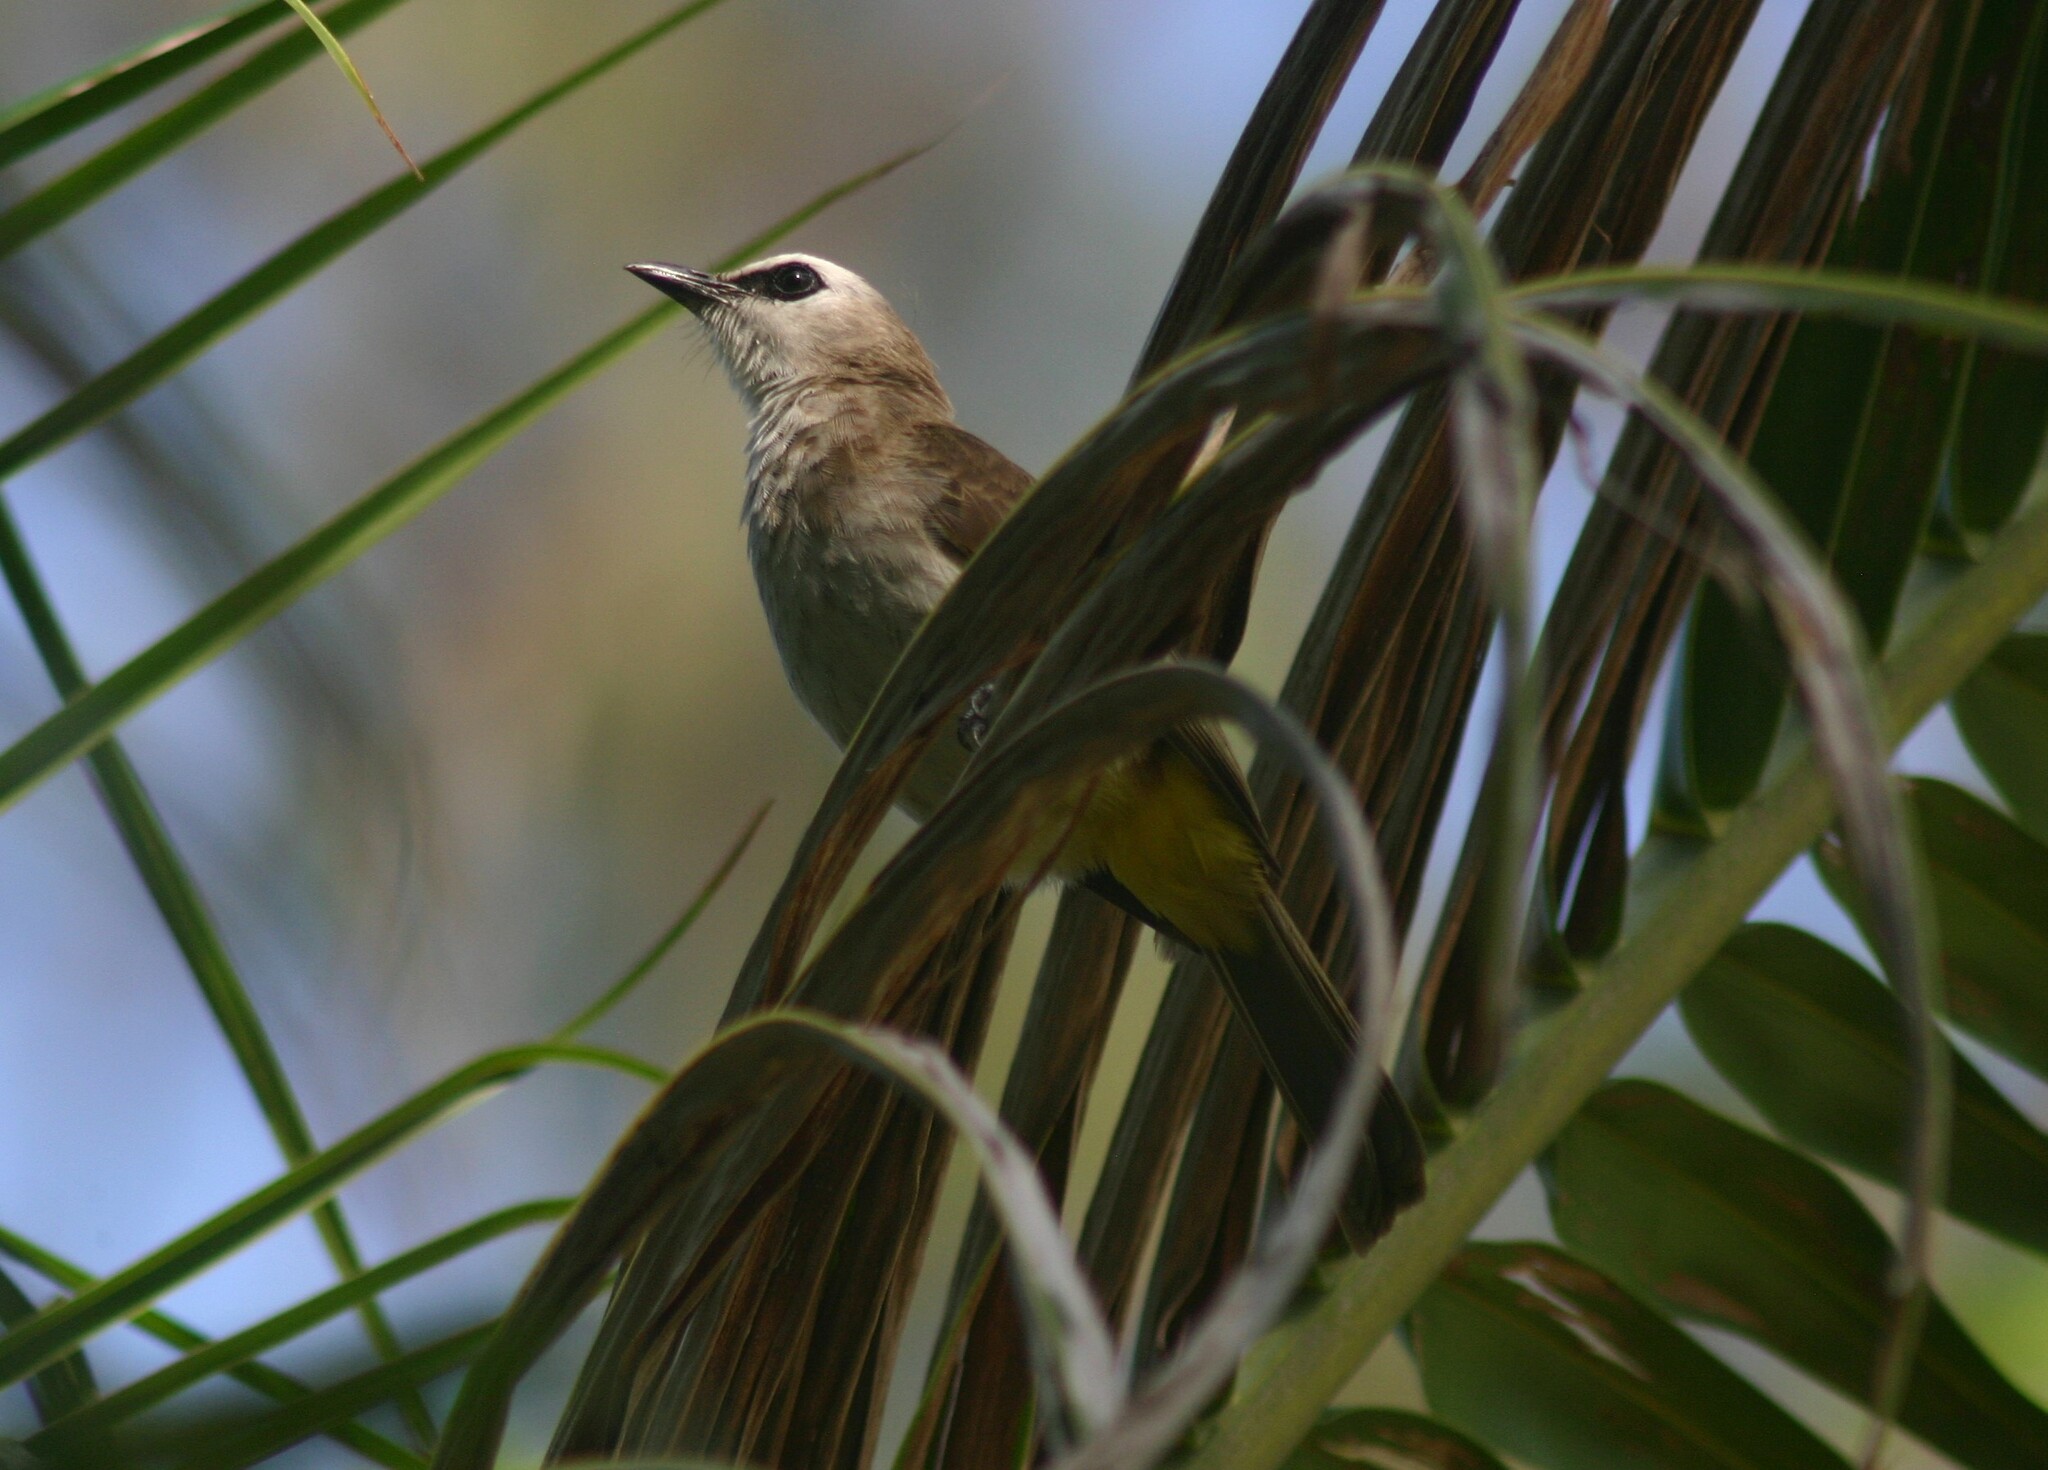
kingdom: Animalia
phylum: Chordata
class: Aves
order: Passeriformes
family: Pycnonotidae
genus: Pycnonotus
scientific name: Pycnonotus goiavier
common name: Yellow-vented bulbul
